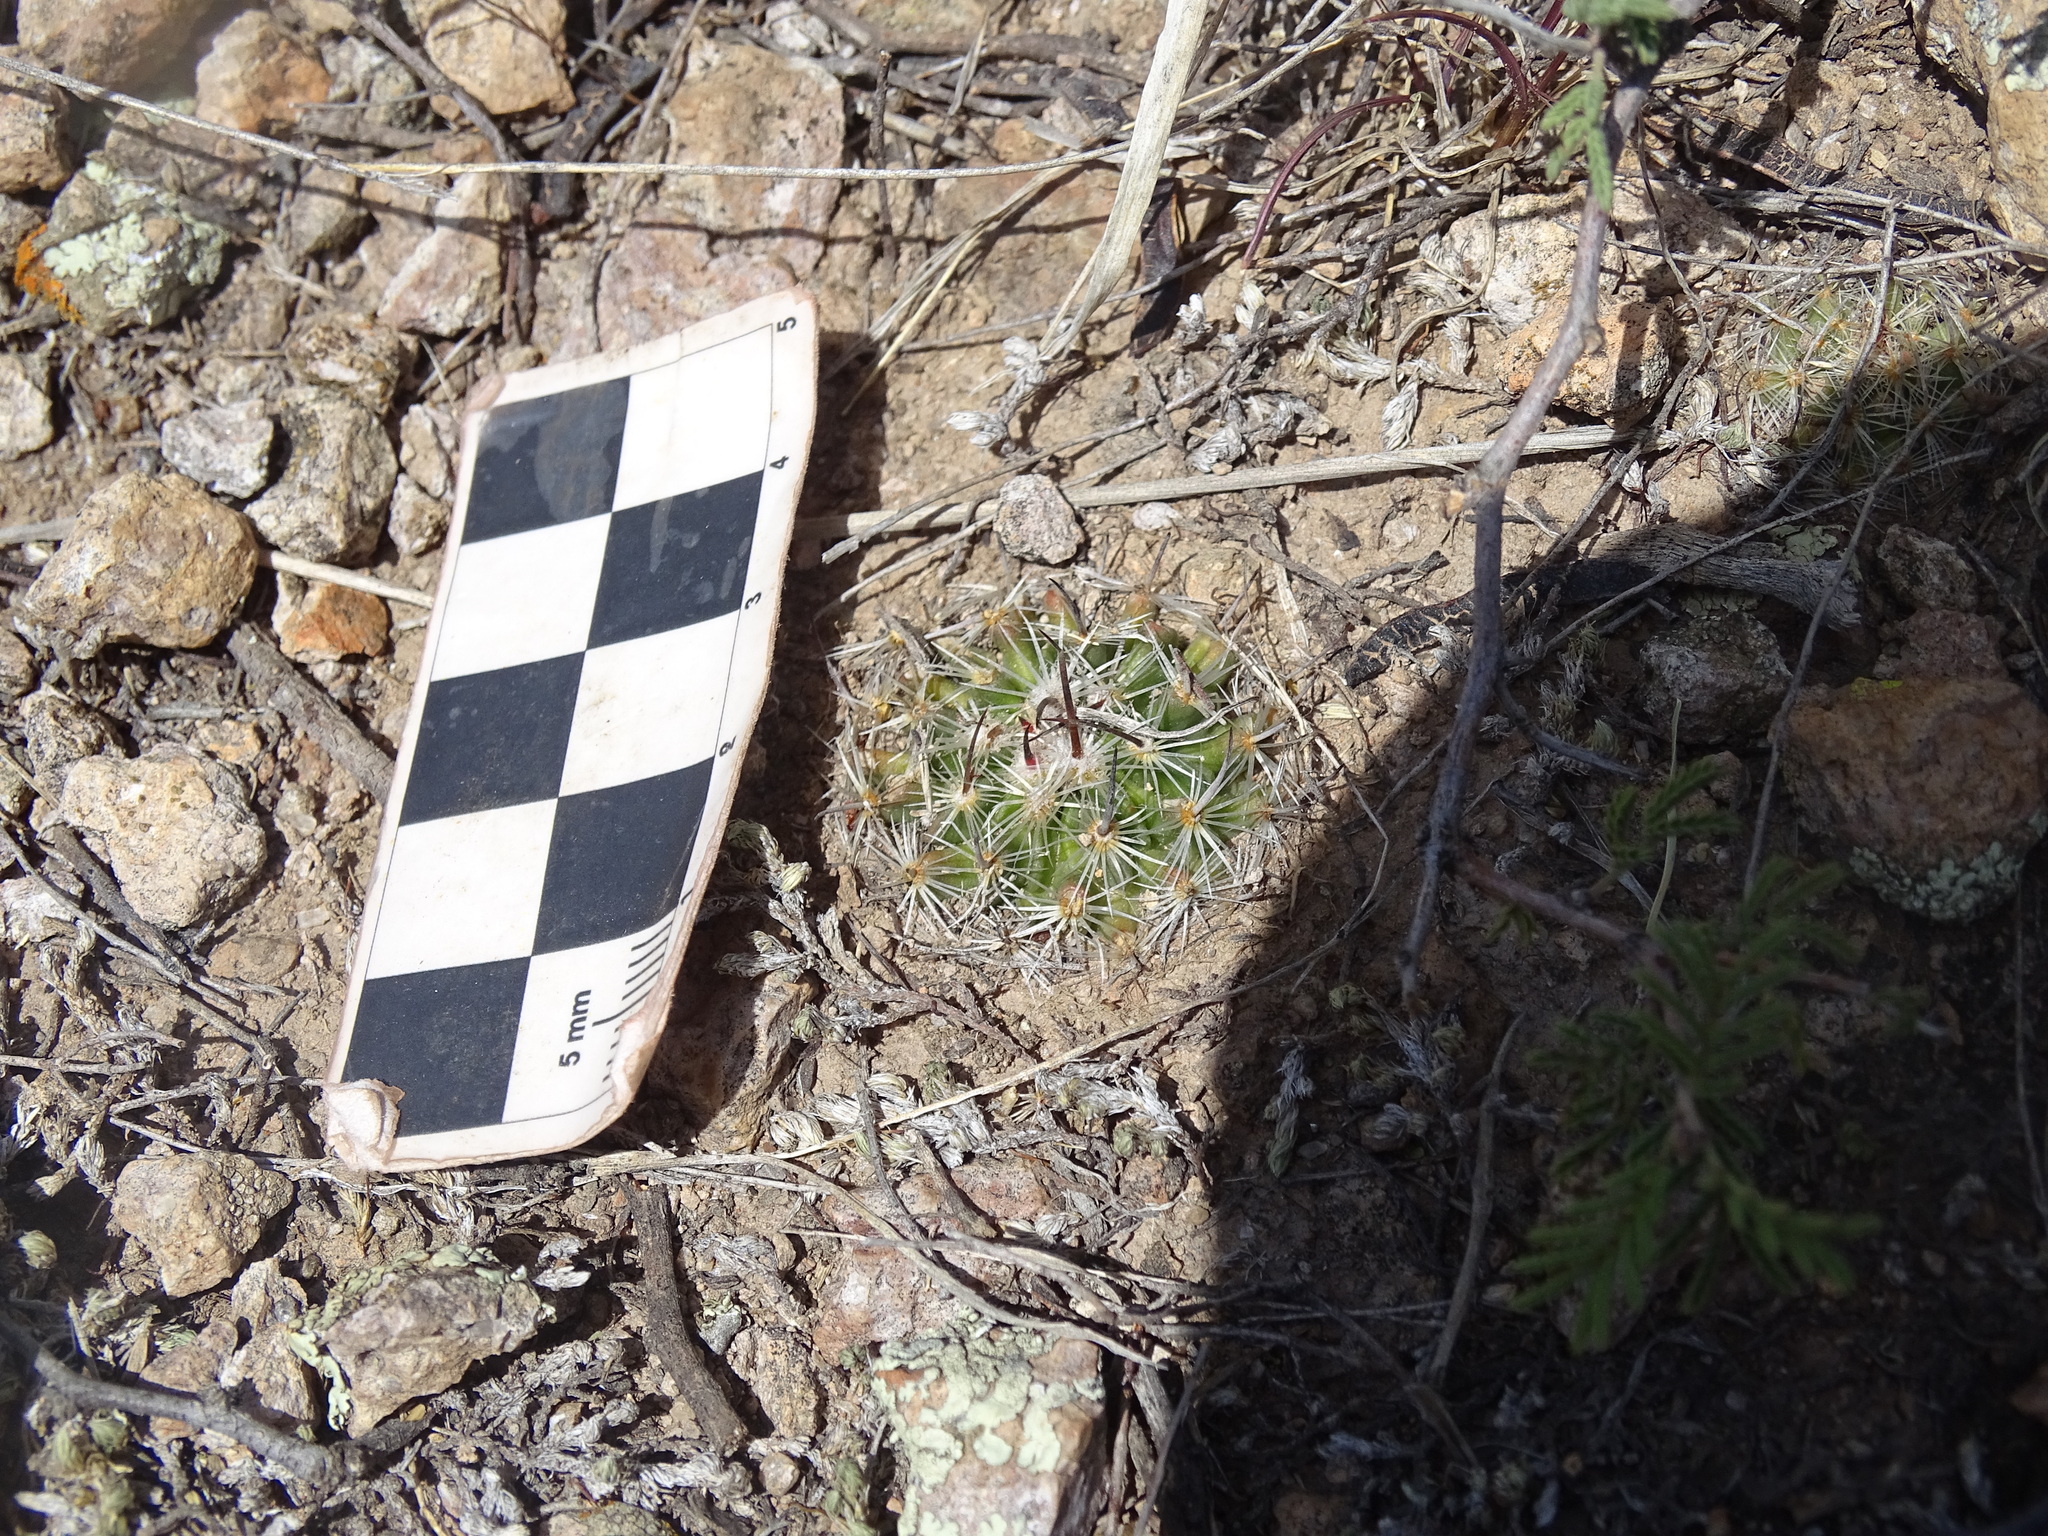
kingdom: Plantae
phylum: Tracheophyta
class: Magnoliopsida
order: Caryophyllales
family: Cactaceae
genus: Stenocactus
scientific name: Stenocactus multicostatus
